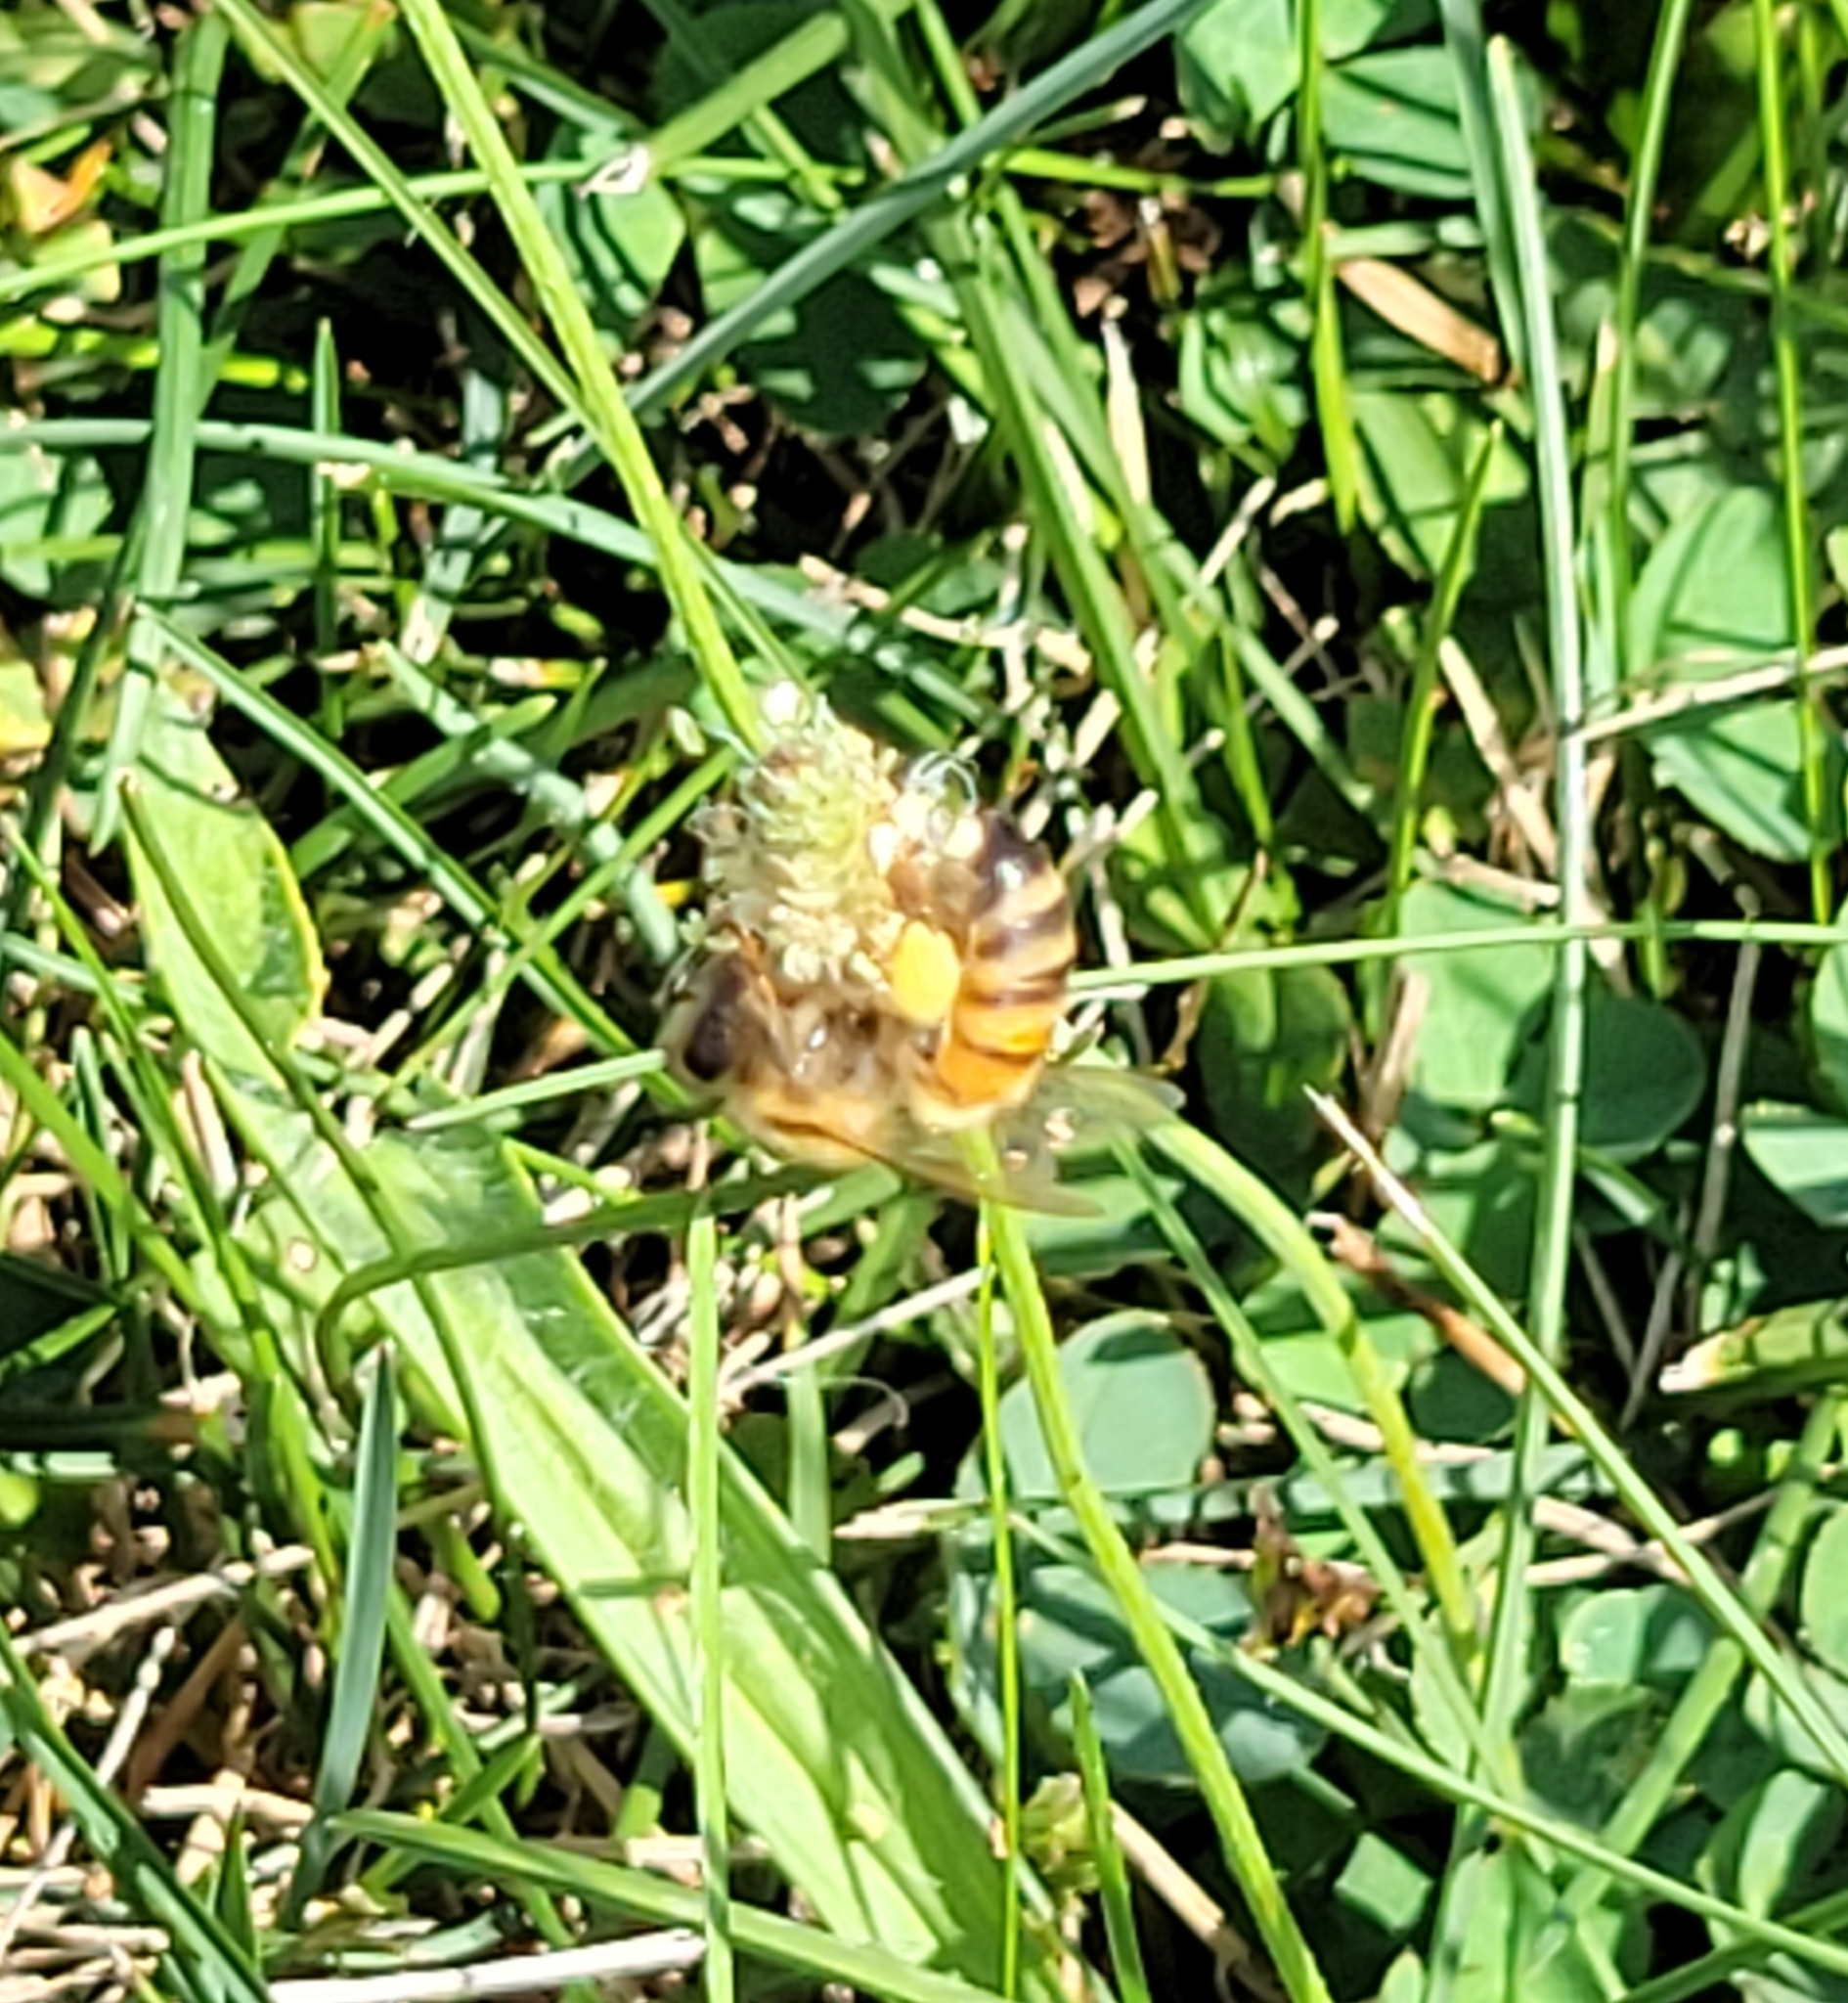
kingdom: Animalia
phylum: Arthropoda
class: Insecta
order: Hymenoptera
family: Apidae
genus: Apis
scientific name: Apis mellifera
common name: Honey bee
